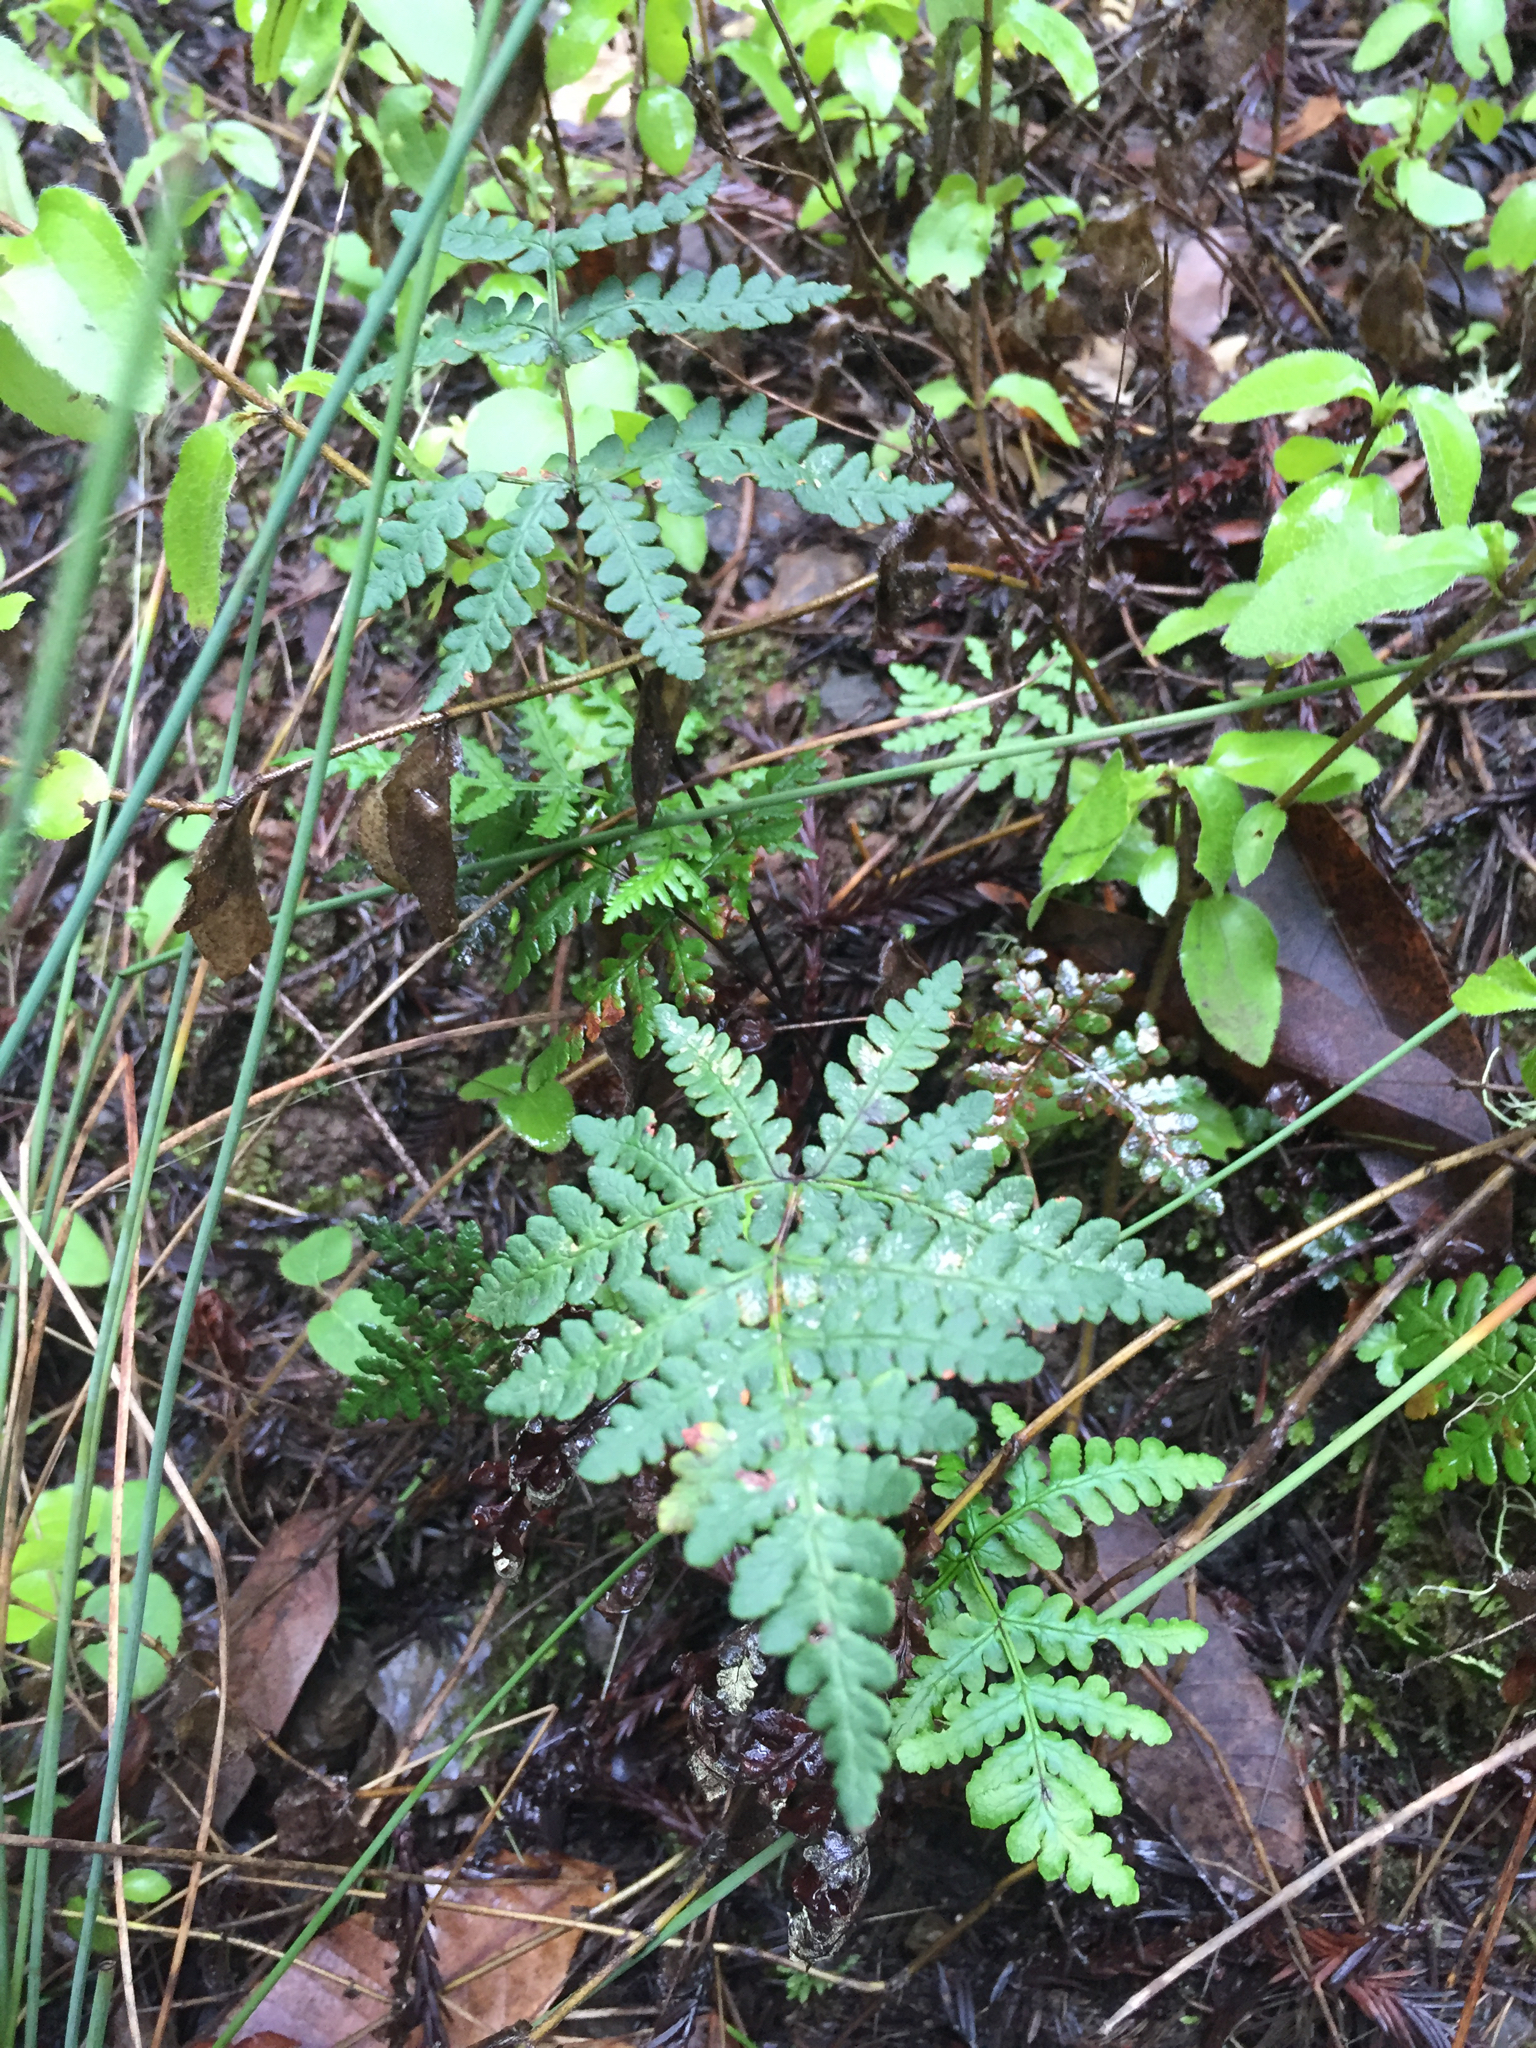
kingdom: Plantae
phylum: Tracheophyta
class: Polypodiopsida
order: Polypodiales
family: Pteridaceae
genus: Pentagramma
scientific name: Pentagramma triangularis
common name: Gold fern
